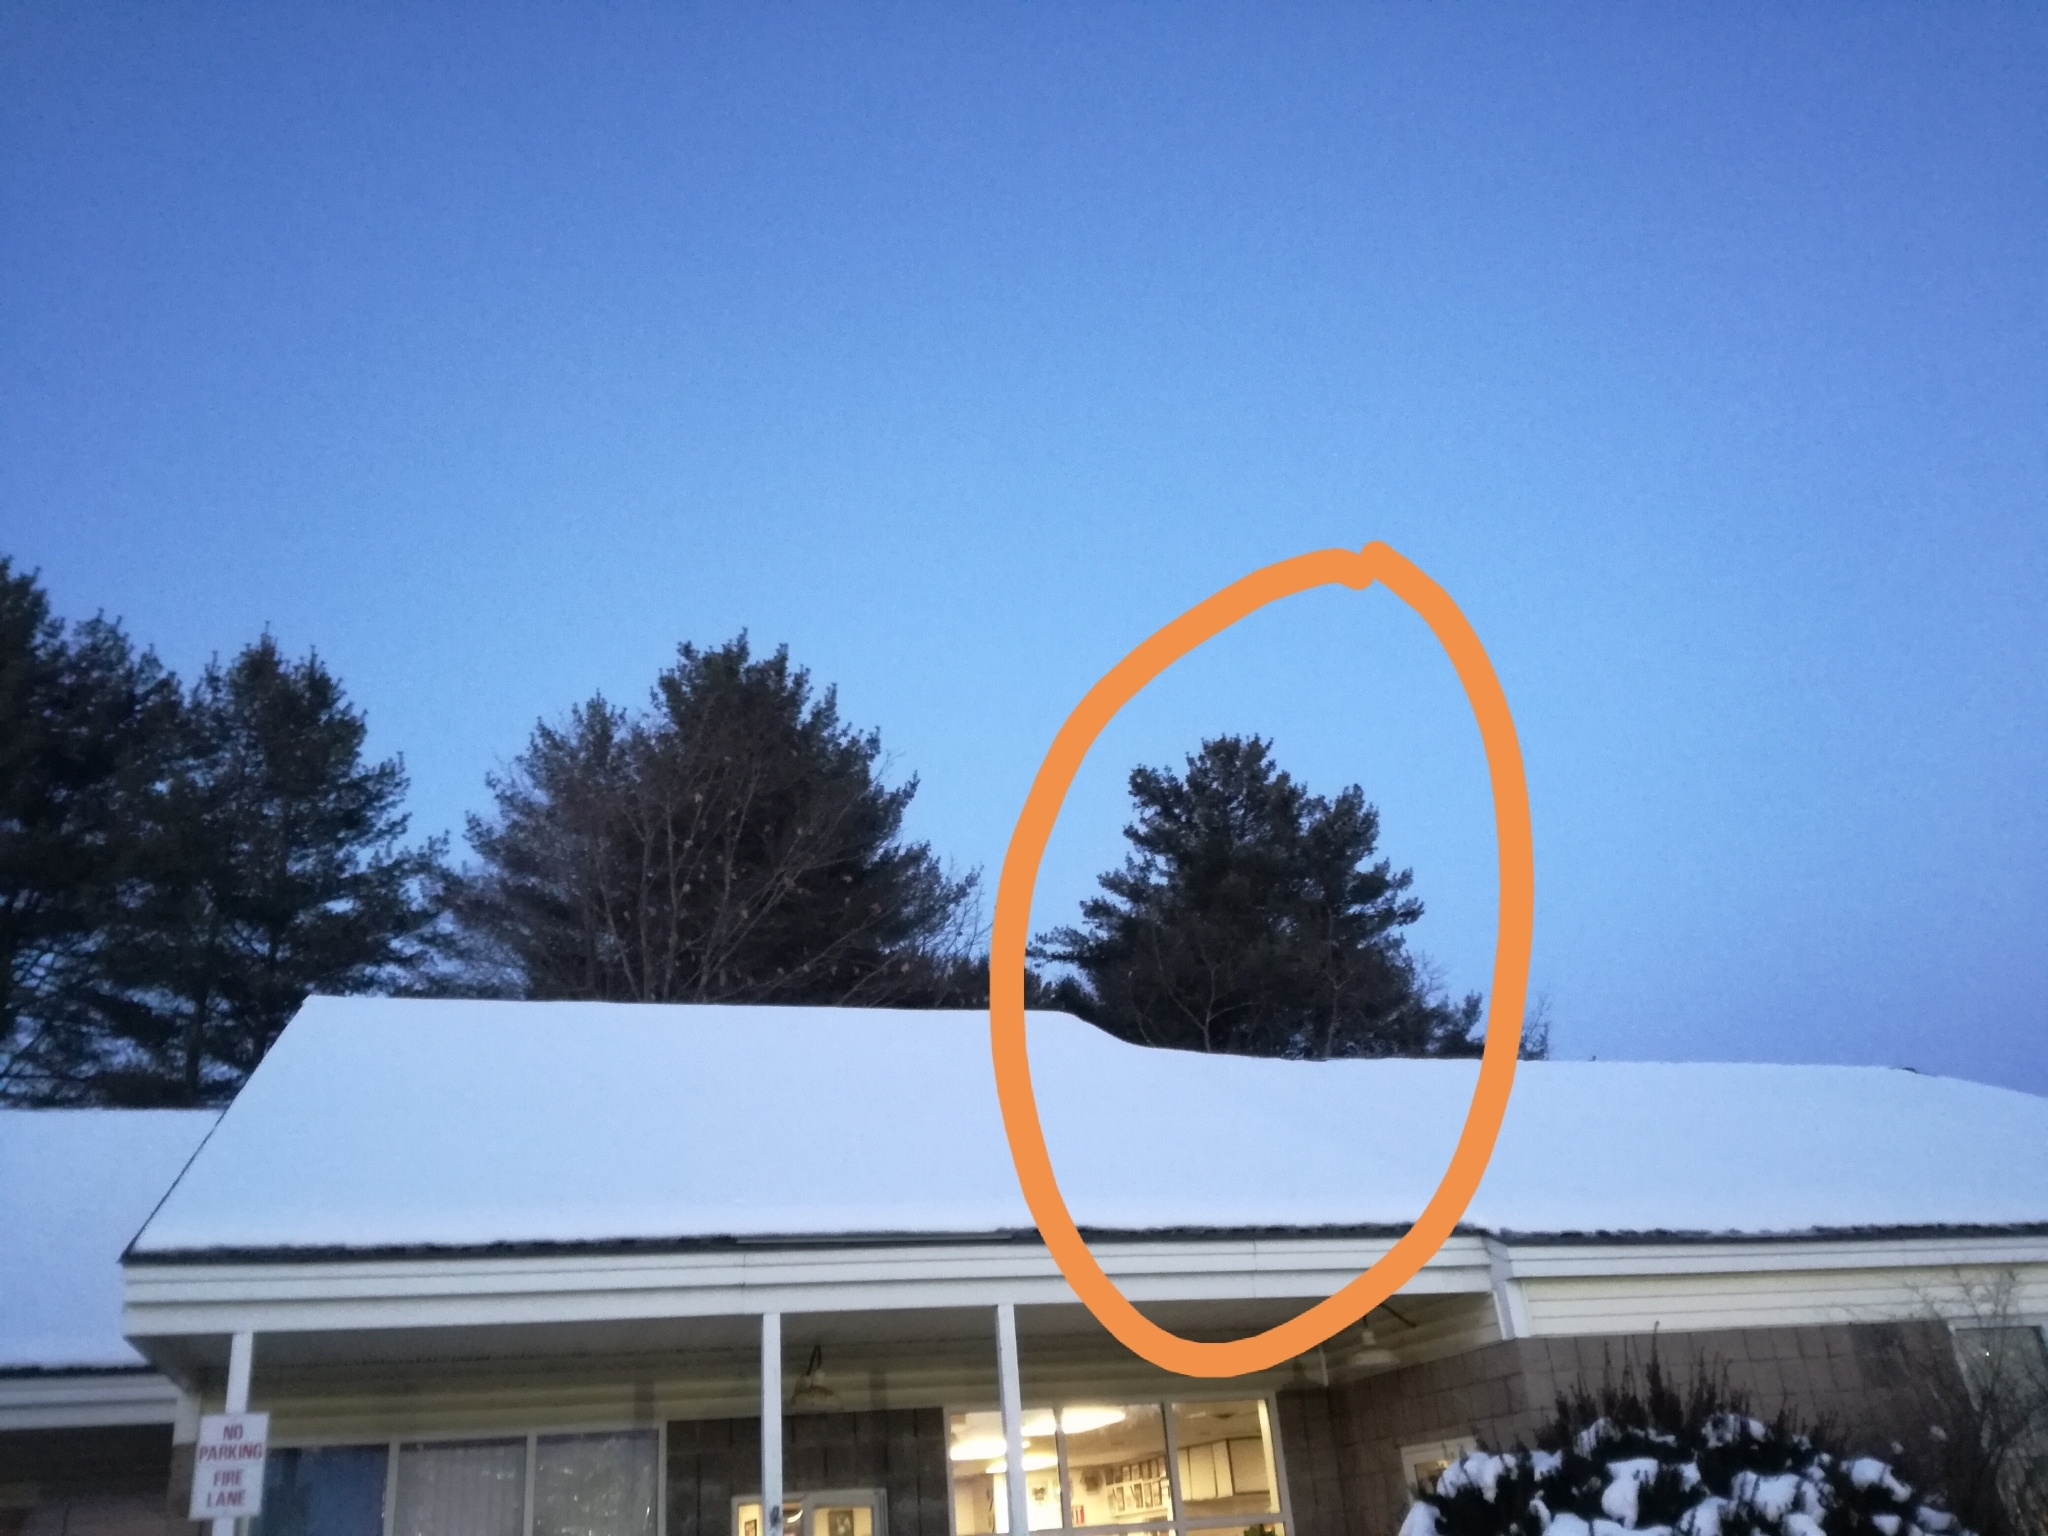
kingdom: Plantae
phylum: Tracheophyta
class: Pinopsida
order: Pinales
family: Pinaceae
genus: Pinus
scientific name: Pinus strobus
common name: Weymouth pine
